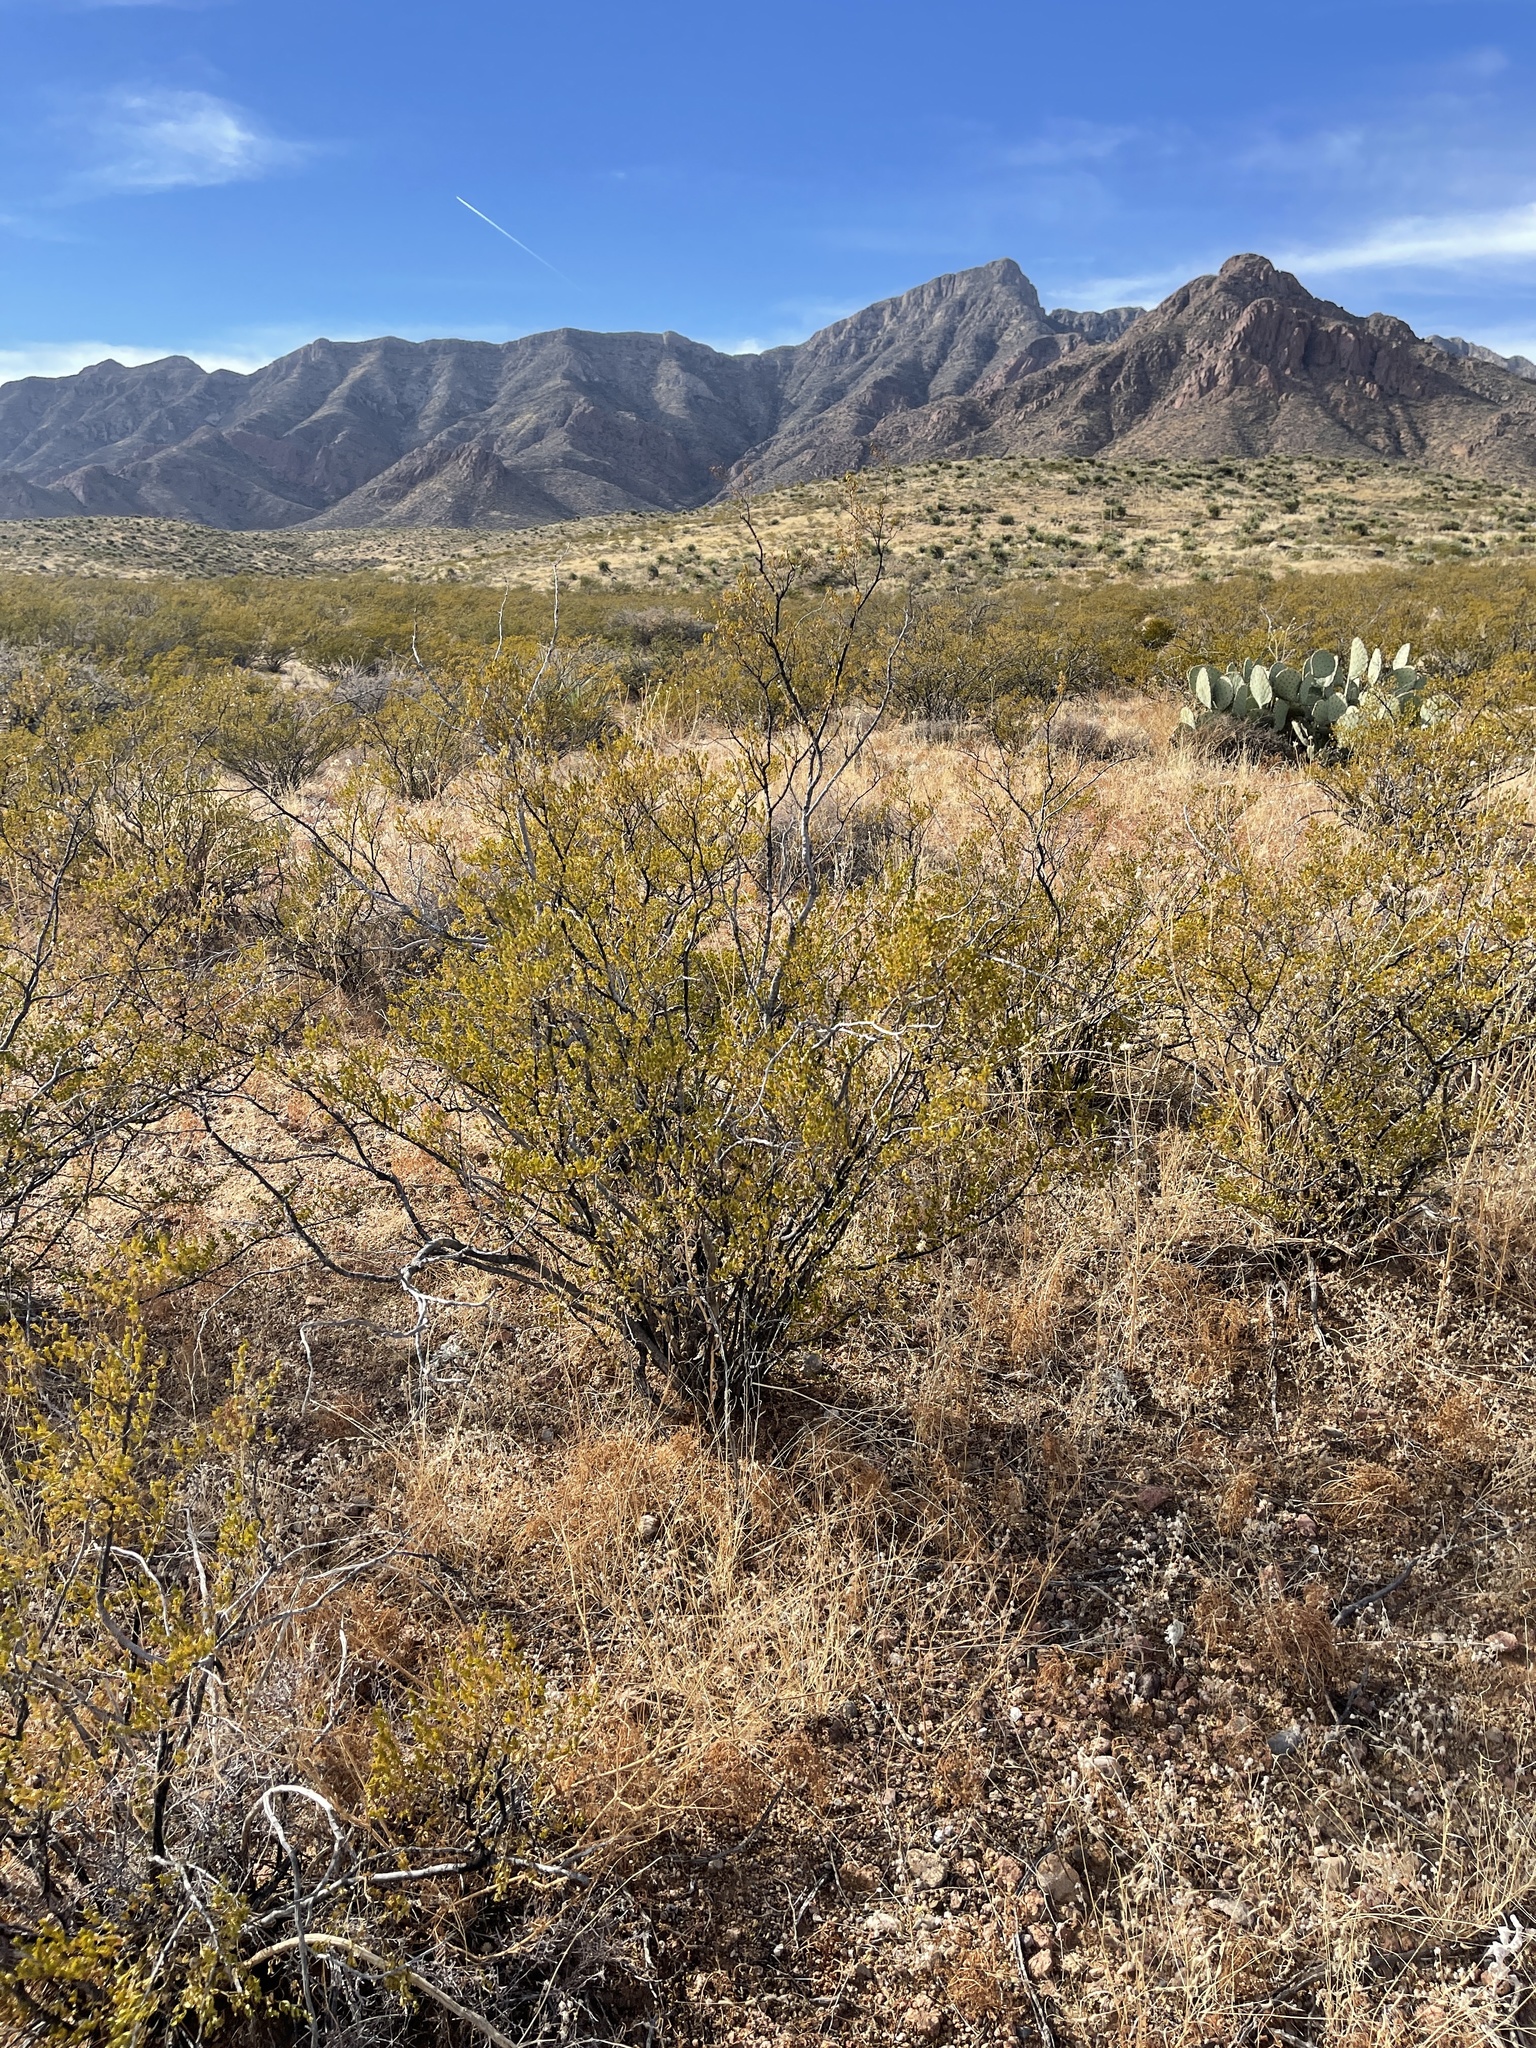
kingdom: Plantae
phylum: Tracheophyta
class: Magnoliopsida
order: Zygophyllales
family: Zygophyllaceae
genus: Larrea
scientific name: Larrea tridentata
